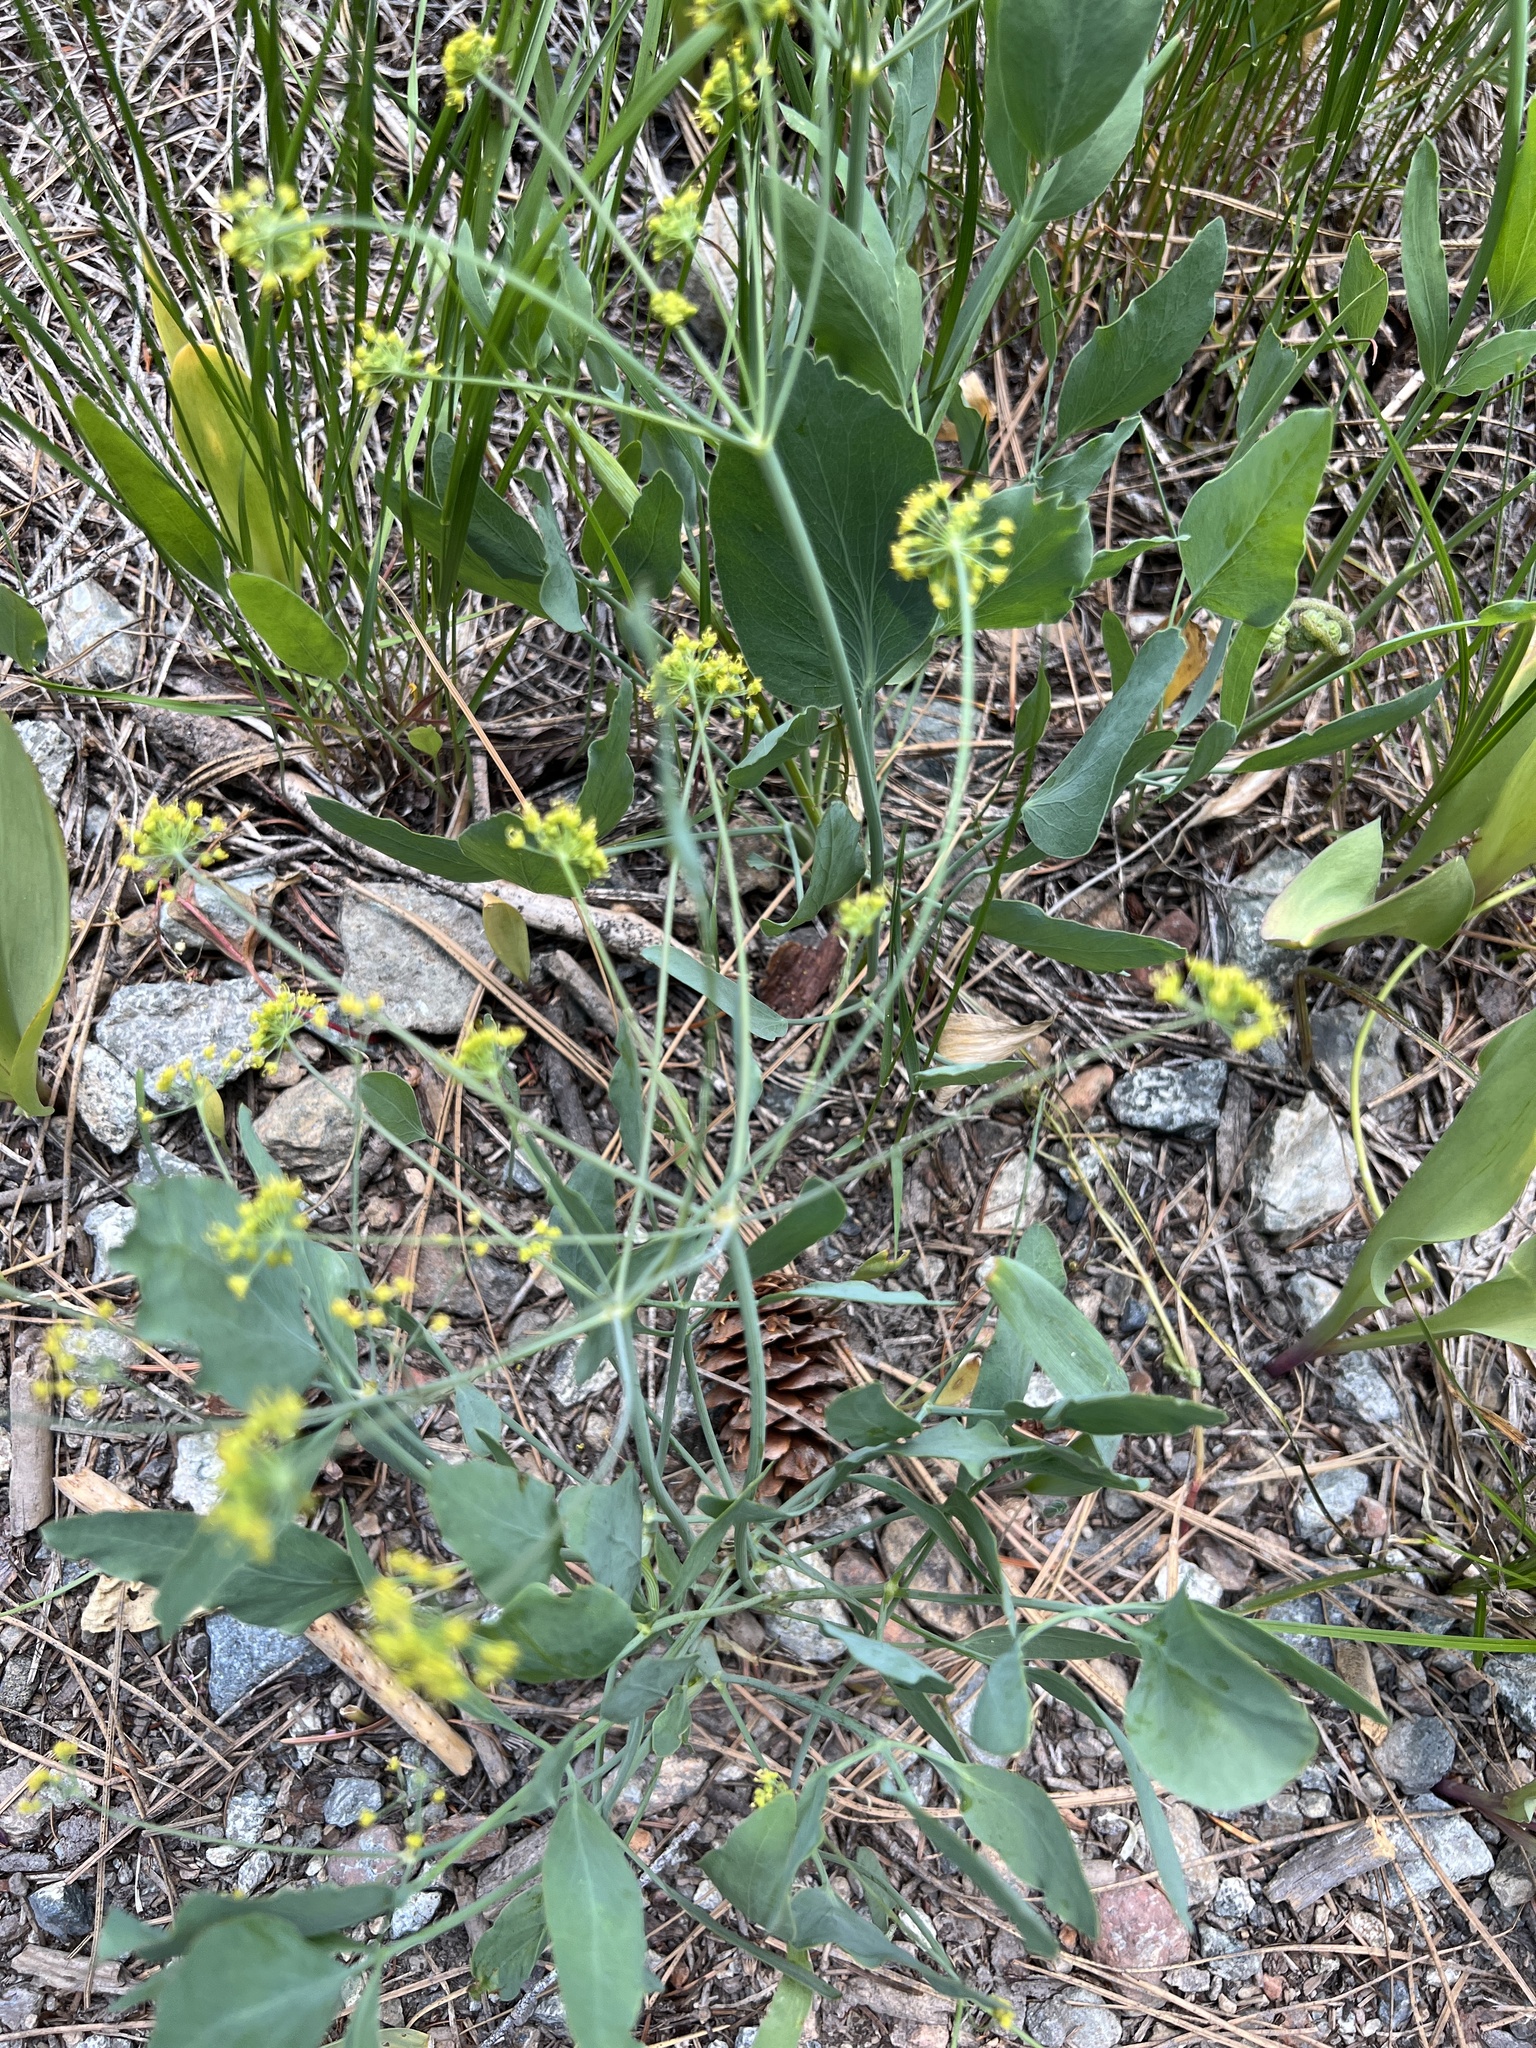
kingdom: Plantae
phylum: Tracheophyta
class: Magnoliopsida
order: Apiales
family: Apiaceae
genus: Lomatium
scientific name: Lomatium nudicaule
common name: Pestle lomatium
